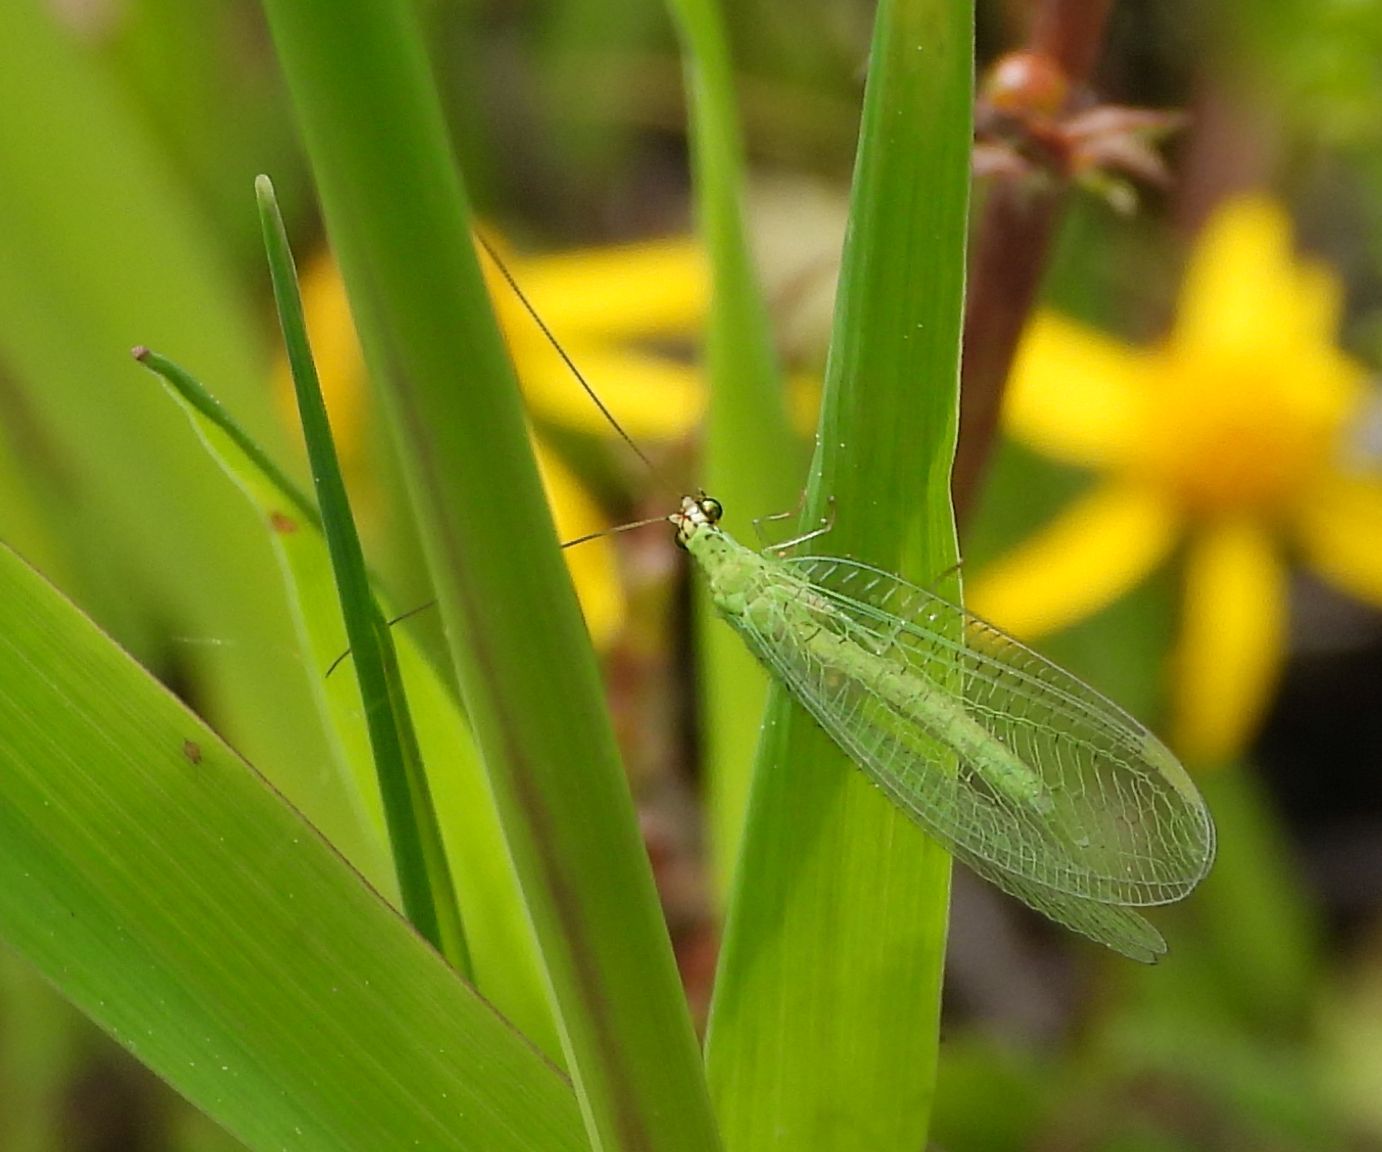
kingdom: Animalia
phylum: Arthropoda
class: Insecta
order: Neuroptera
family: Chrysopidae
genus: Chrysopa
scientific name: Chrysopa oculata
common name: Golden-eyed lacewing
